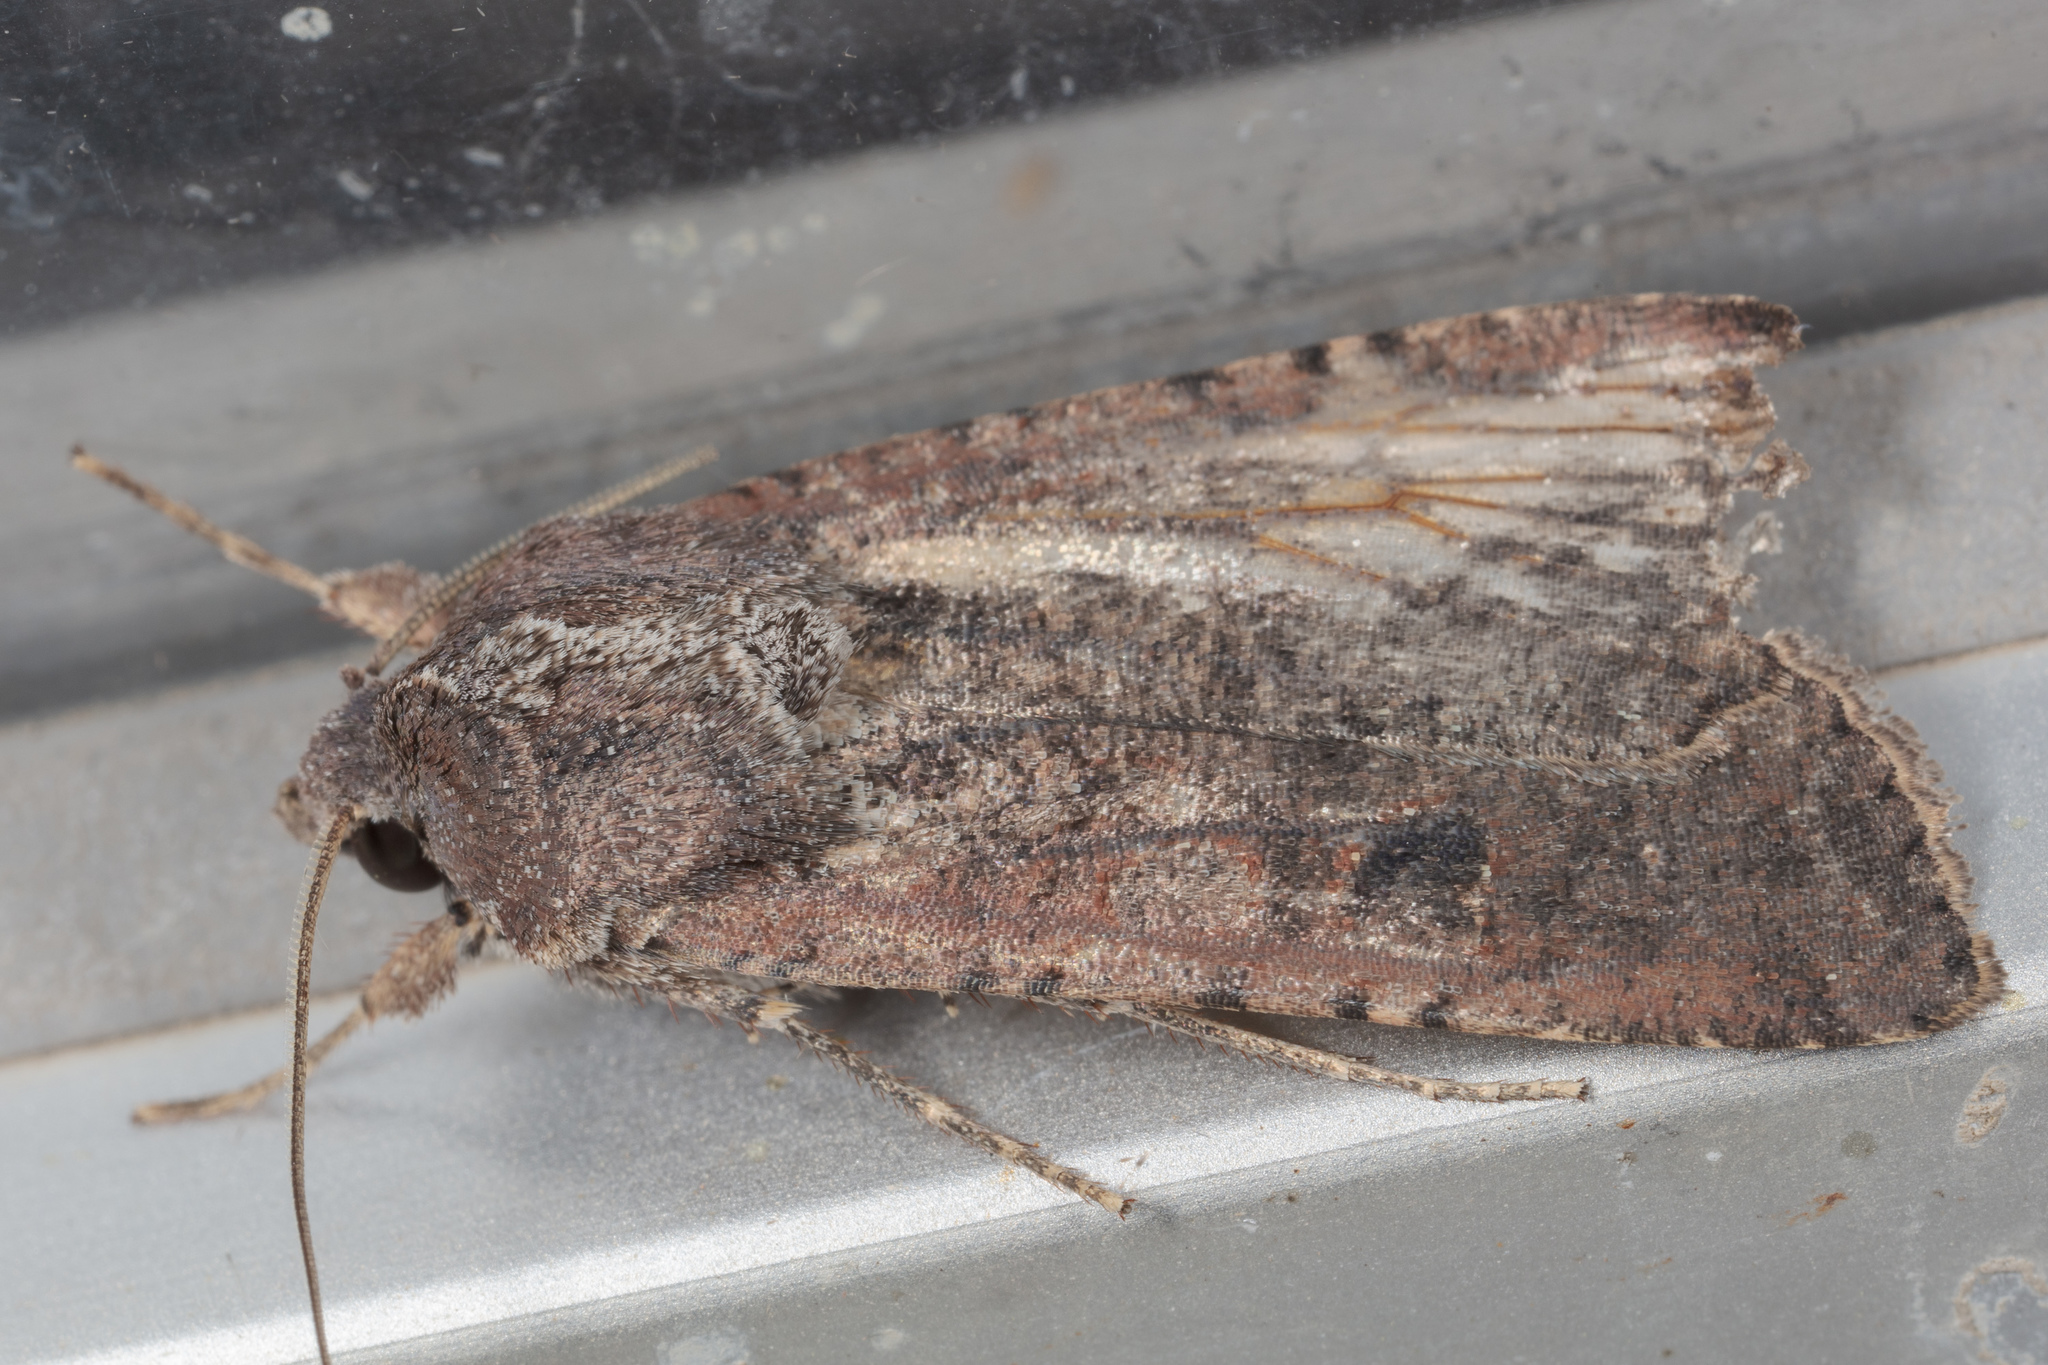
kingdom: Animalia
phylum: Arthropoda
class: Insecta
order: Lepidoptera
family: Noctuidae
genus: Peridroma
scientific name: Peridroma saucia
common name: Pearly underwing
